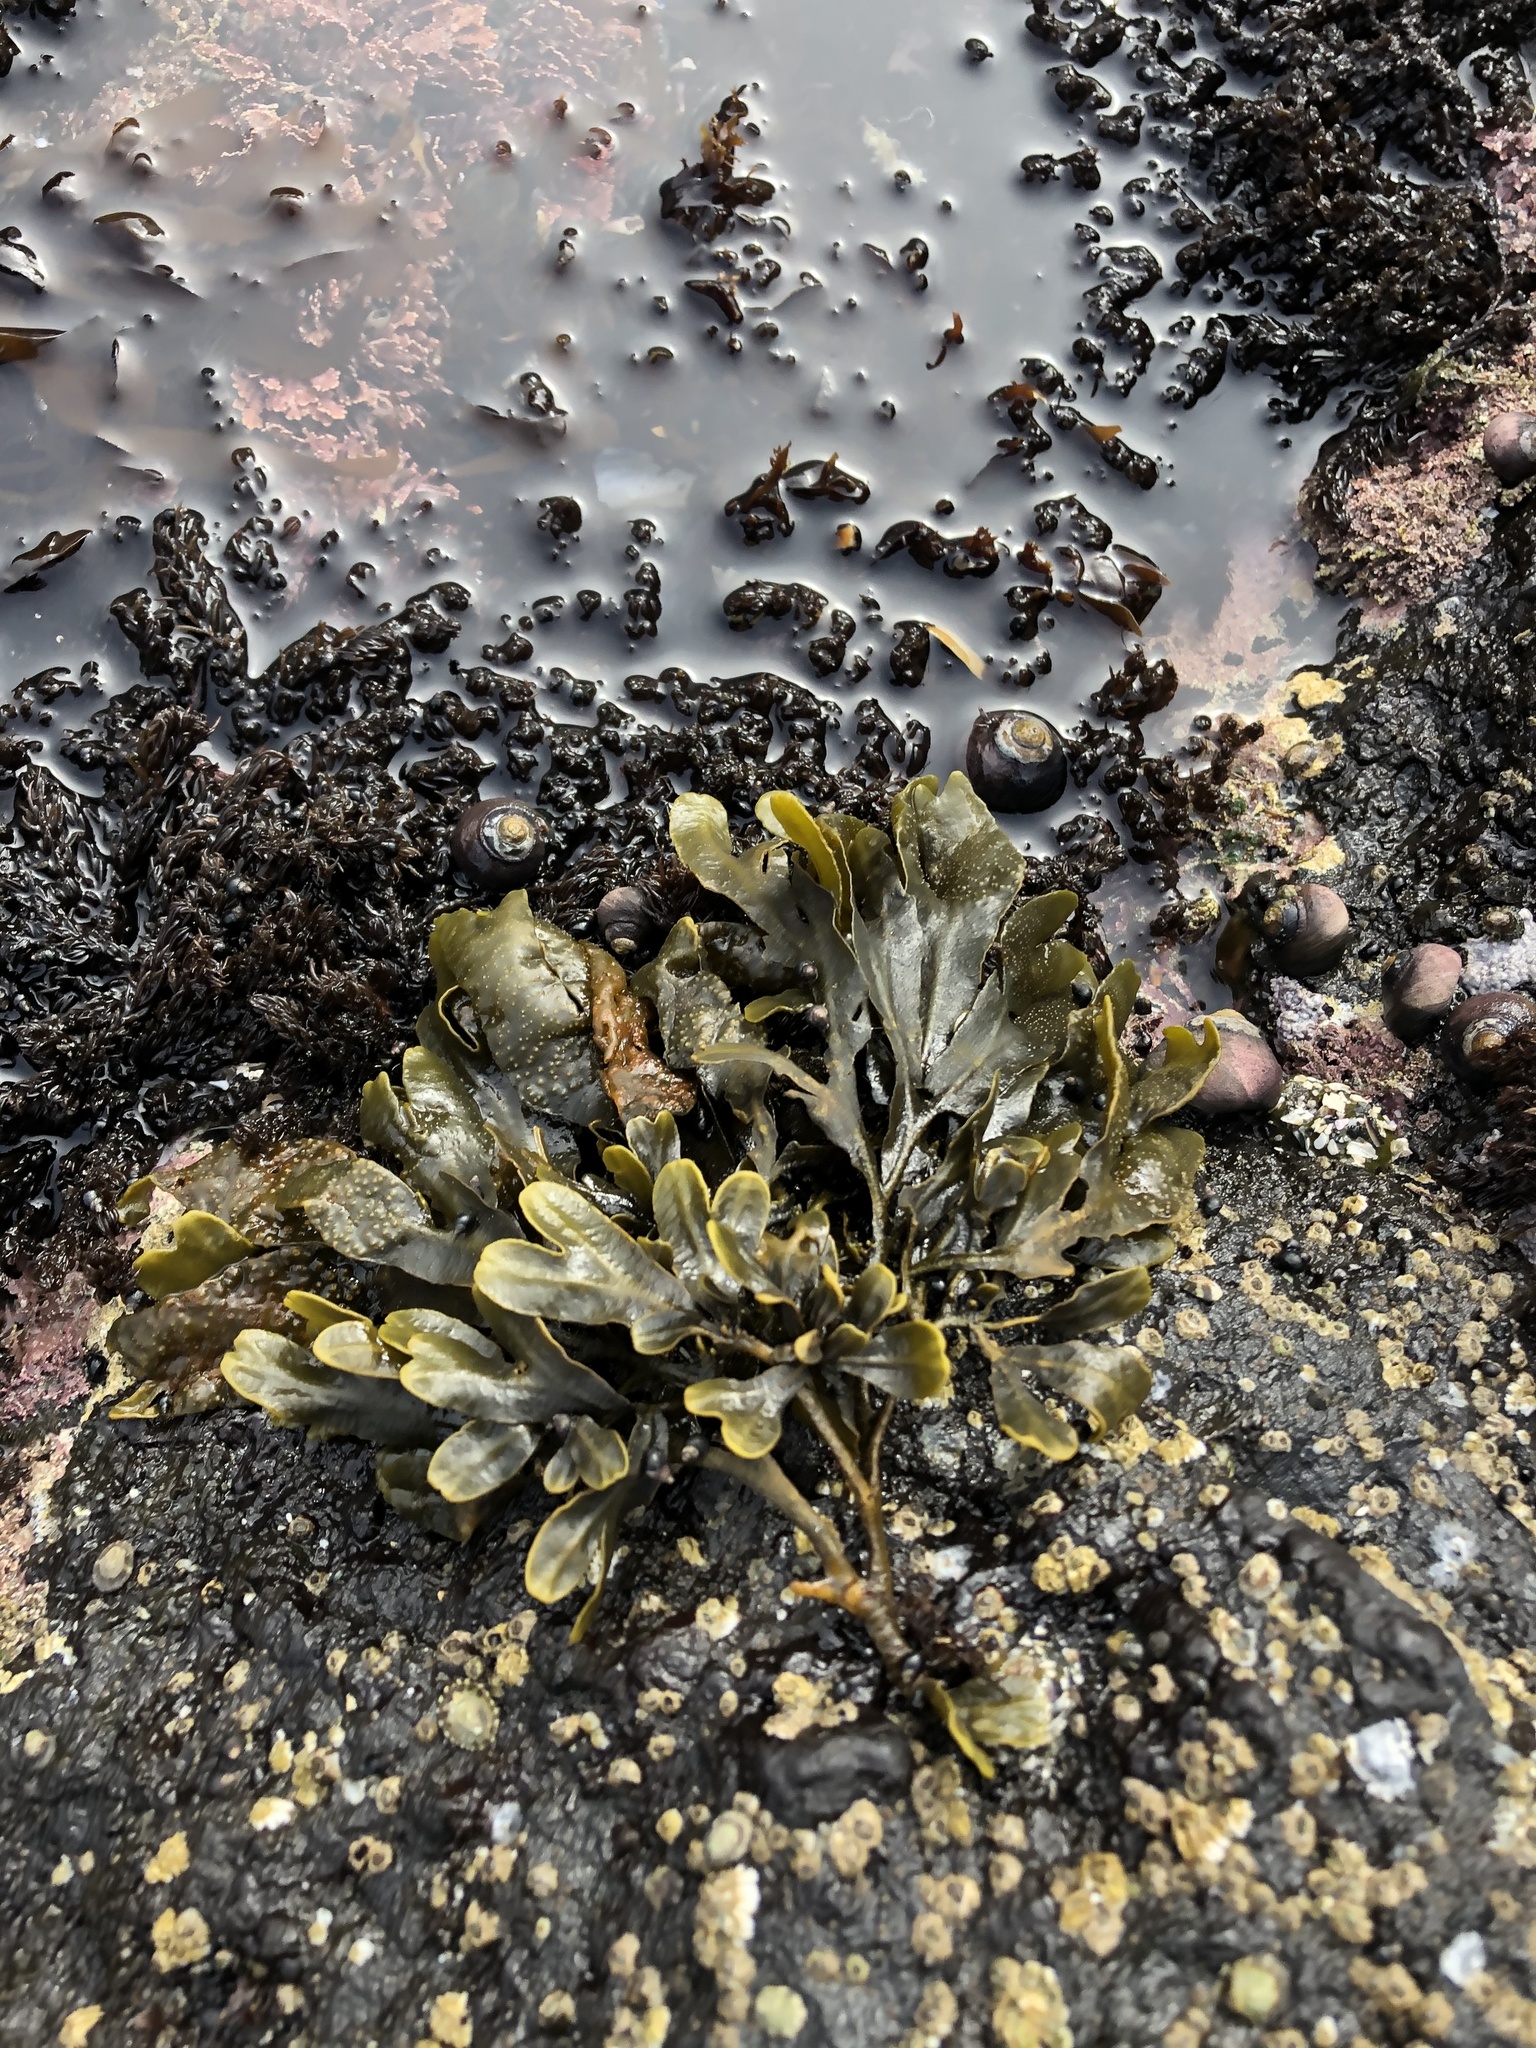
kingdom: Chromista
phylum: Ochrophyta
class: Phaeophyceae
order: Fucales
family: Fucaceae
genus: Fucus
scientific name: Fucus distichus
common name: Rockweed
